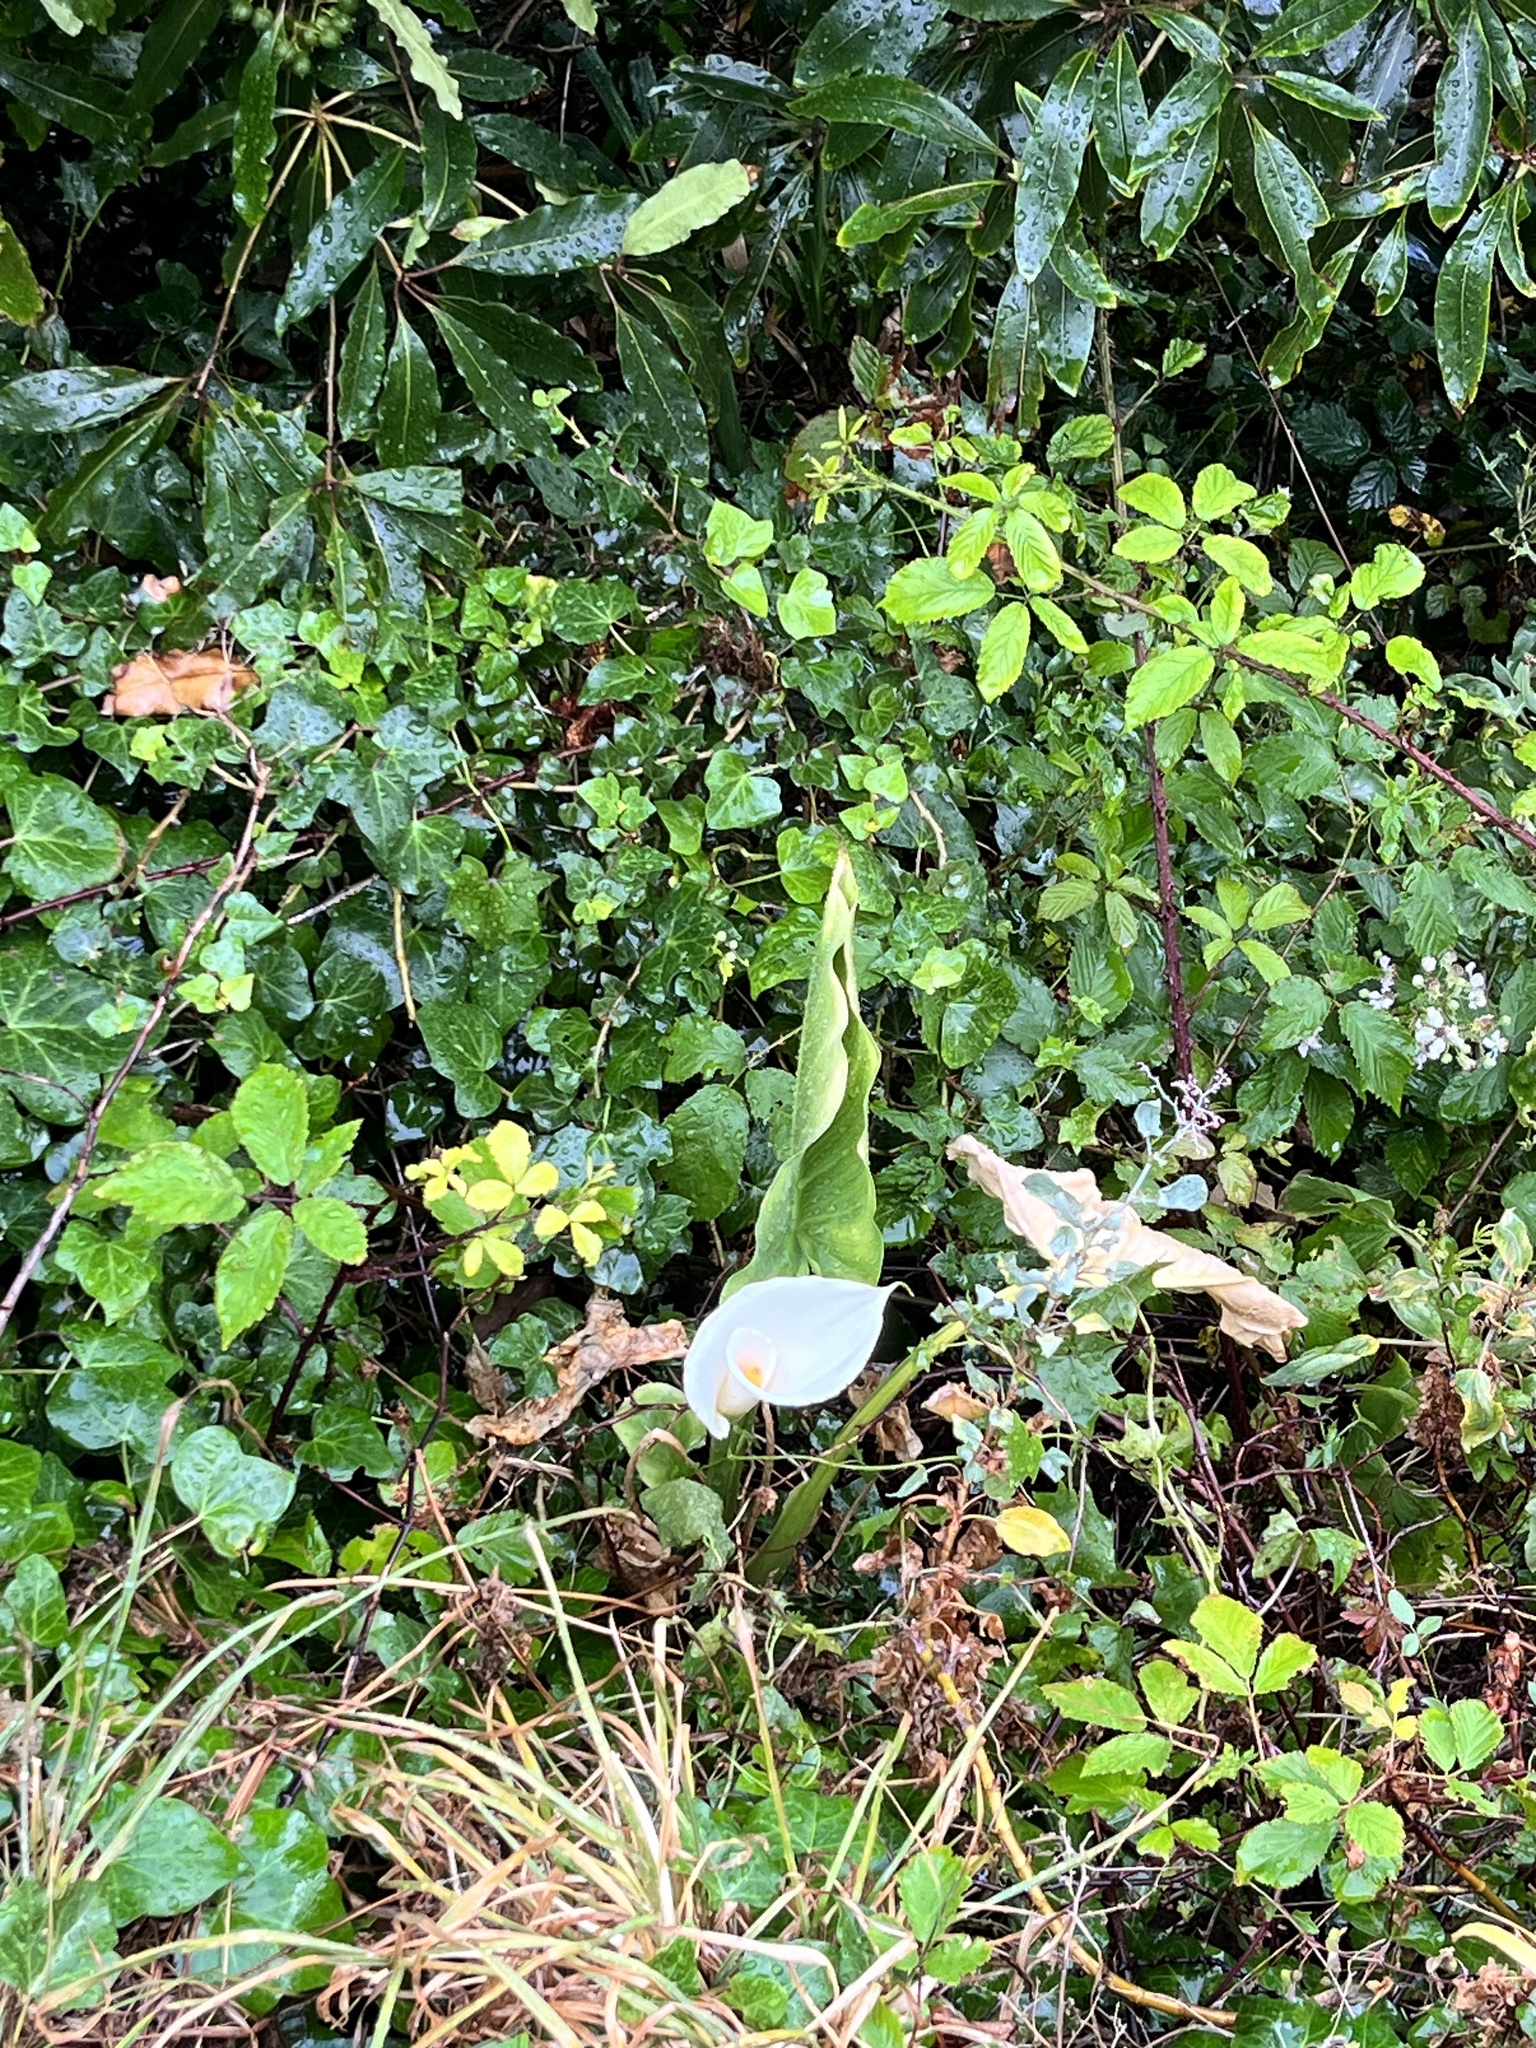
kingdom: Plantae
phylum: Tracheophyta
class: Liliopsida
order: Alismatales
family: Araceae
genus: Zantedeschia
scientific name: Zantedeschia aethiopica
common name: Altar-lily
